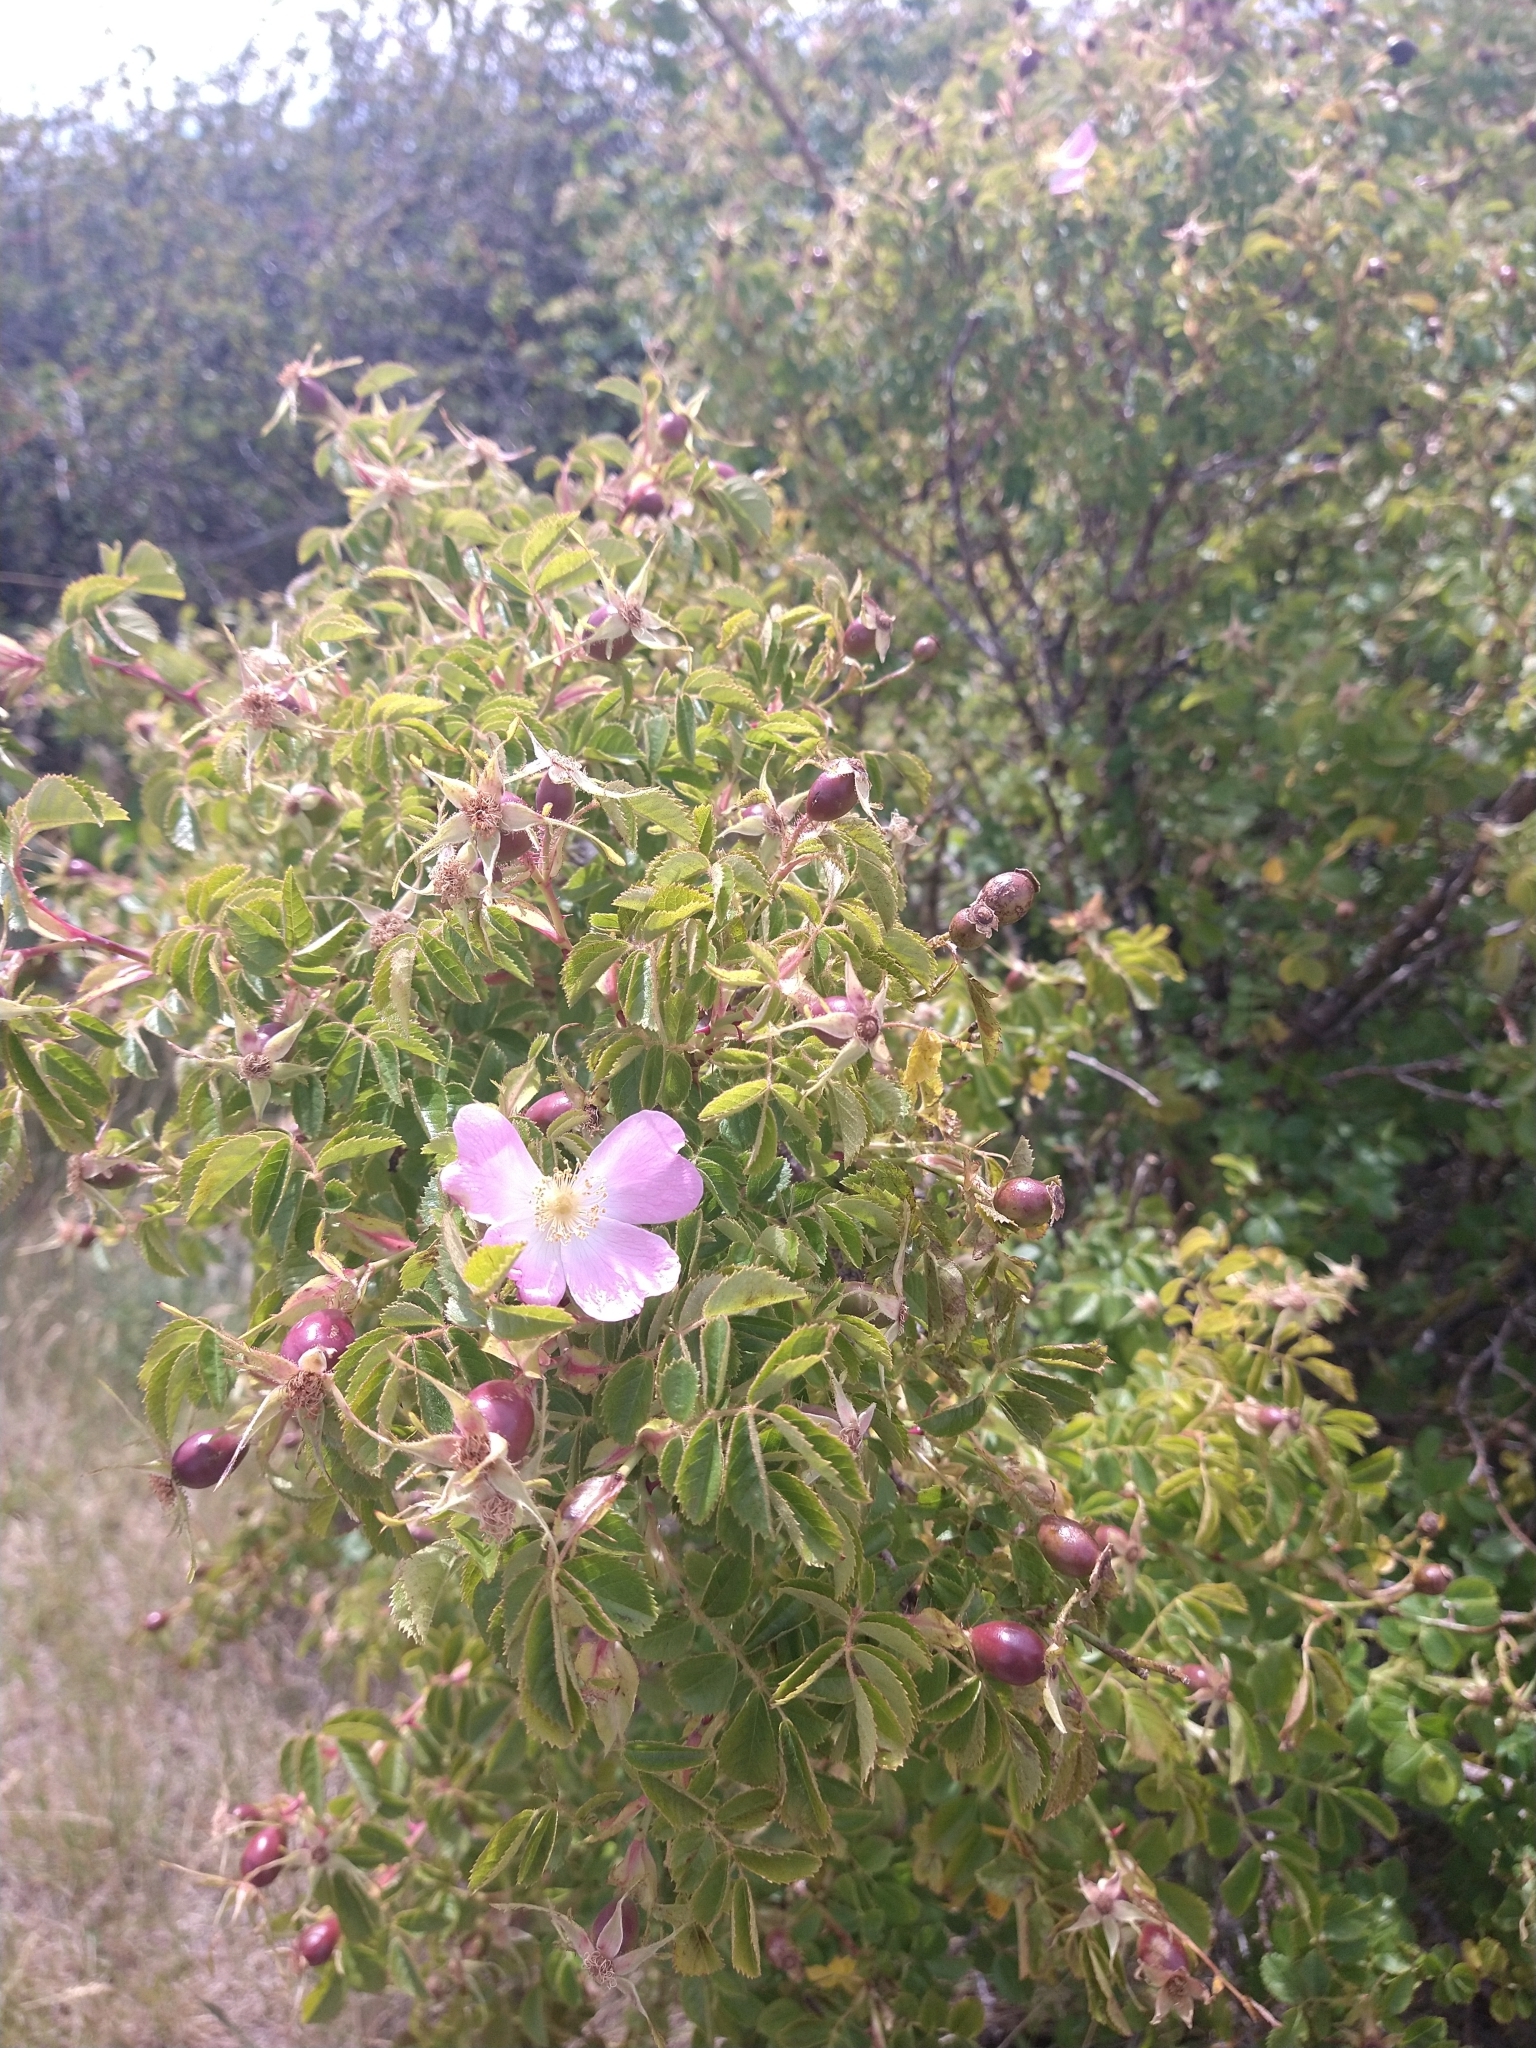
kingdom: Plantae
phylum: Tracheophyta
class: Magnoliopsida
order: Rosales
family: Rosaceae
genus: Rosa
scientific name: Rosa rubiginosa
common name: Sweet-briar
